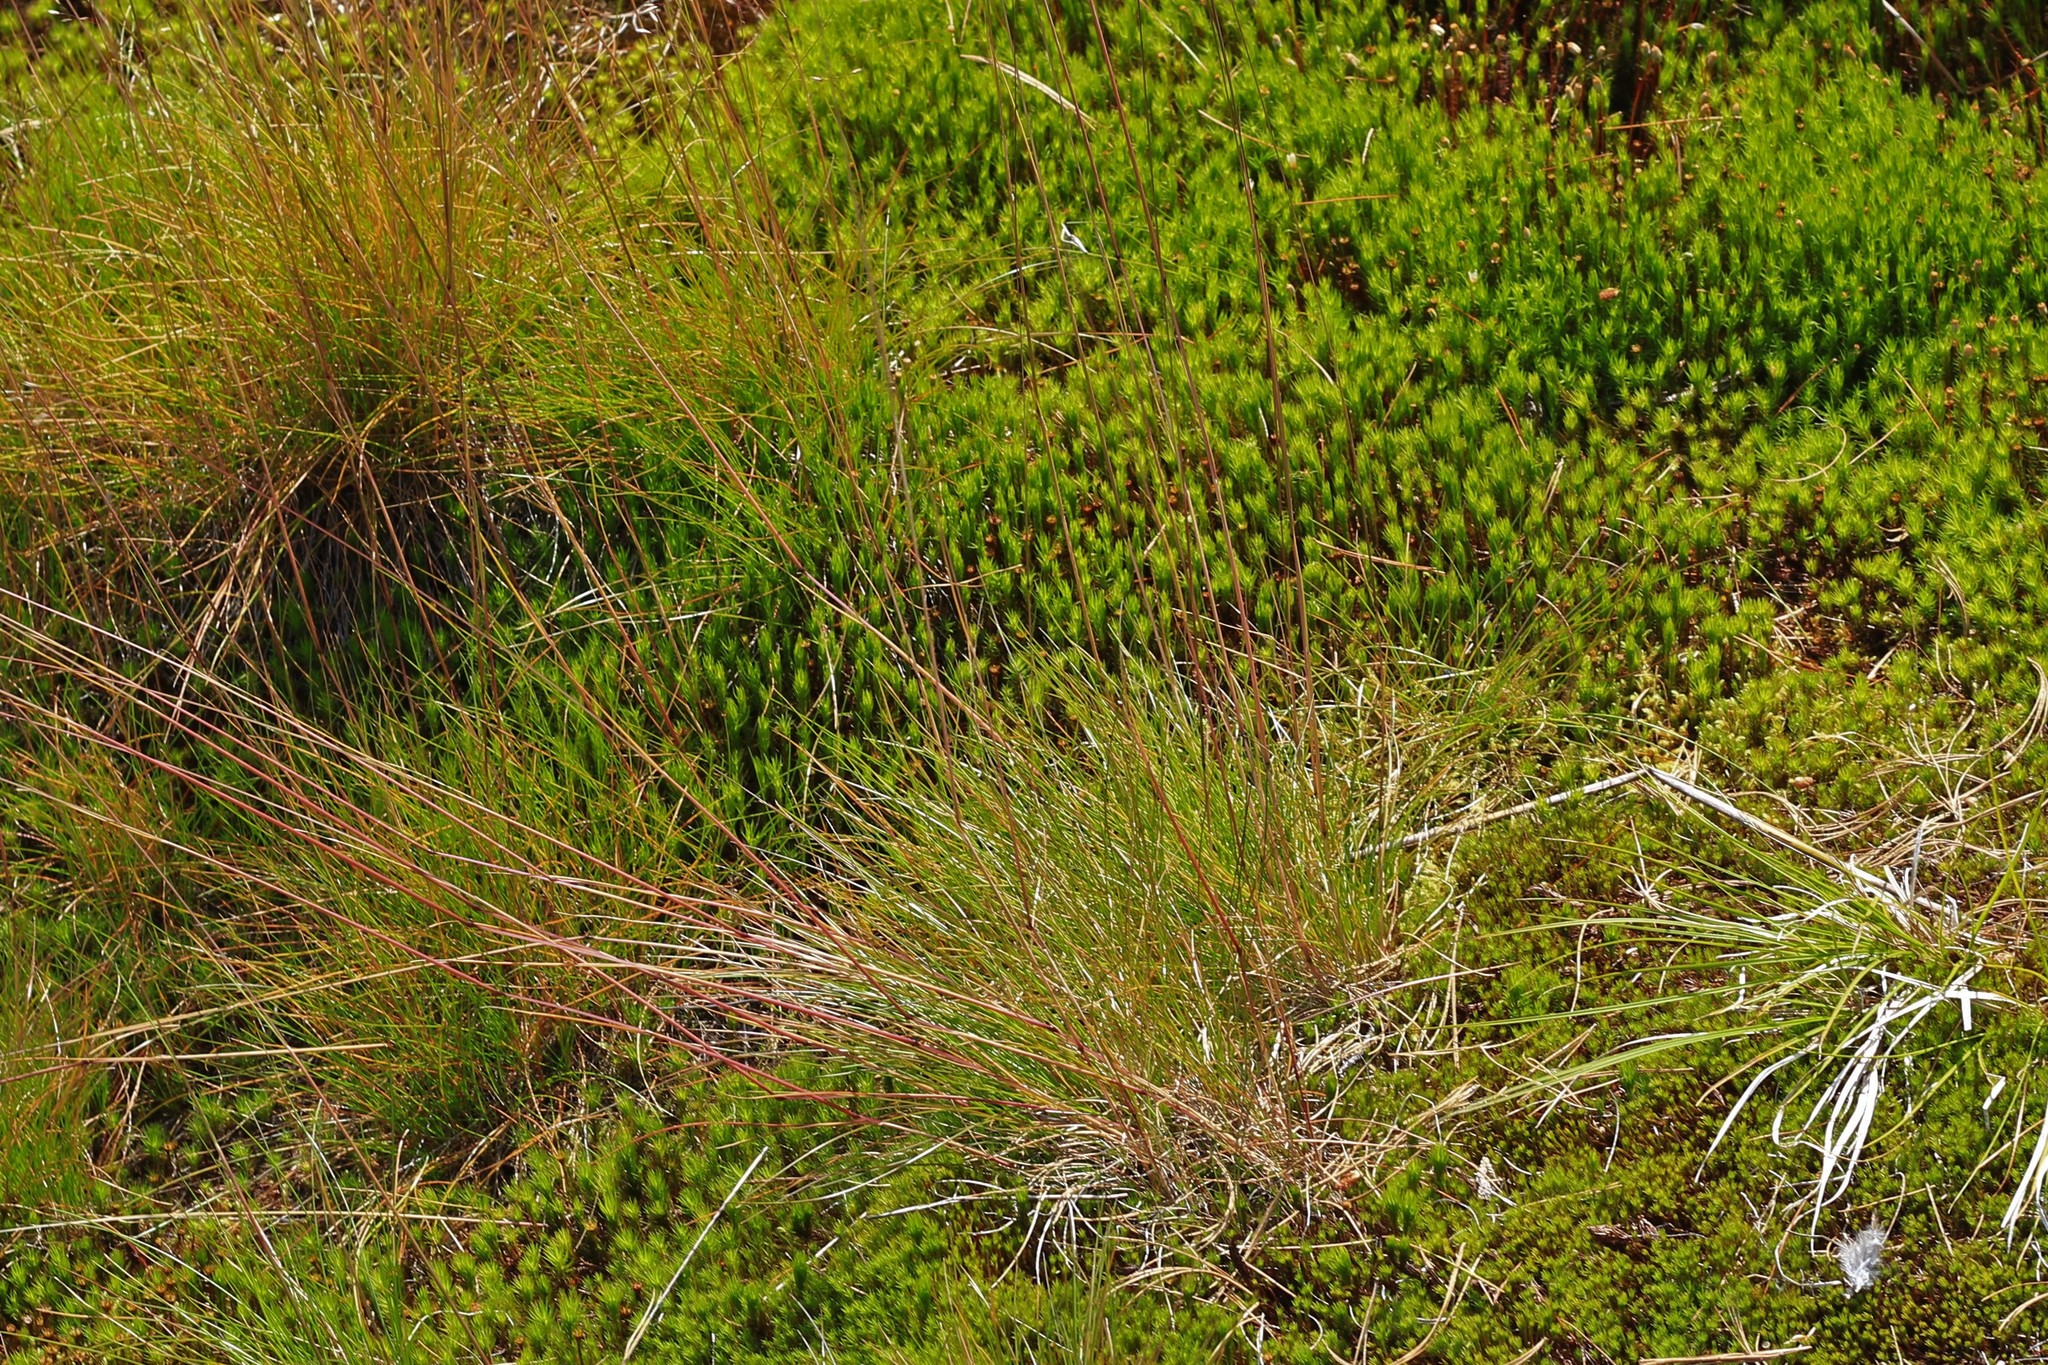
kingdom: Plantae
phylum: Tracheophyta
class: Liliopsida
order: Poales
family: Poaceae
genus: Avenella
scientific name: Avenella flexuosa
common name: Wavy hairgrass
